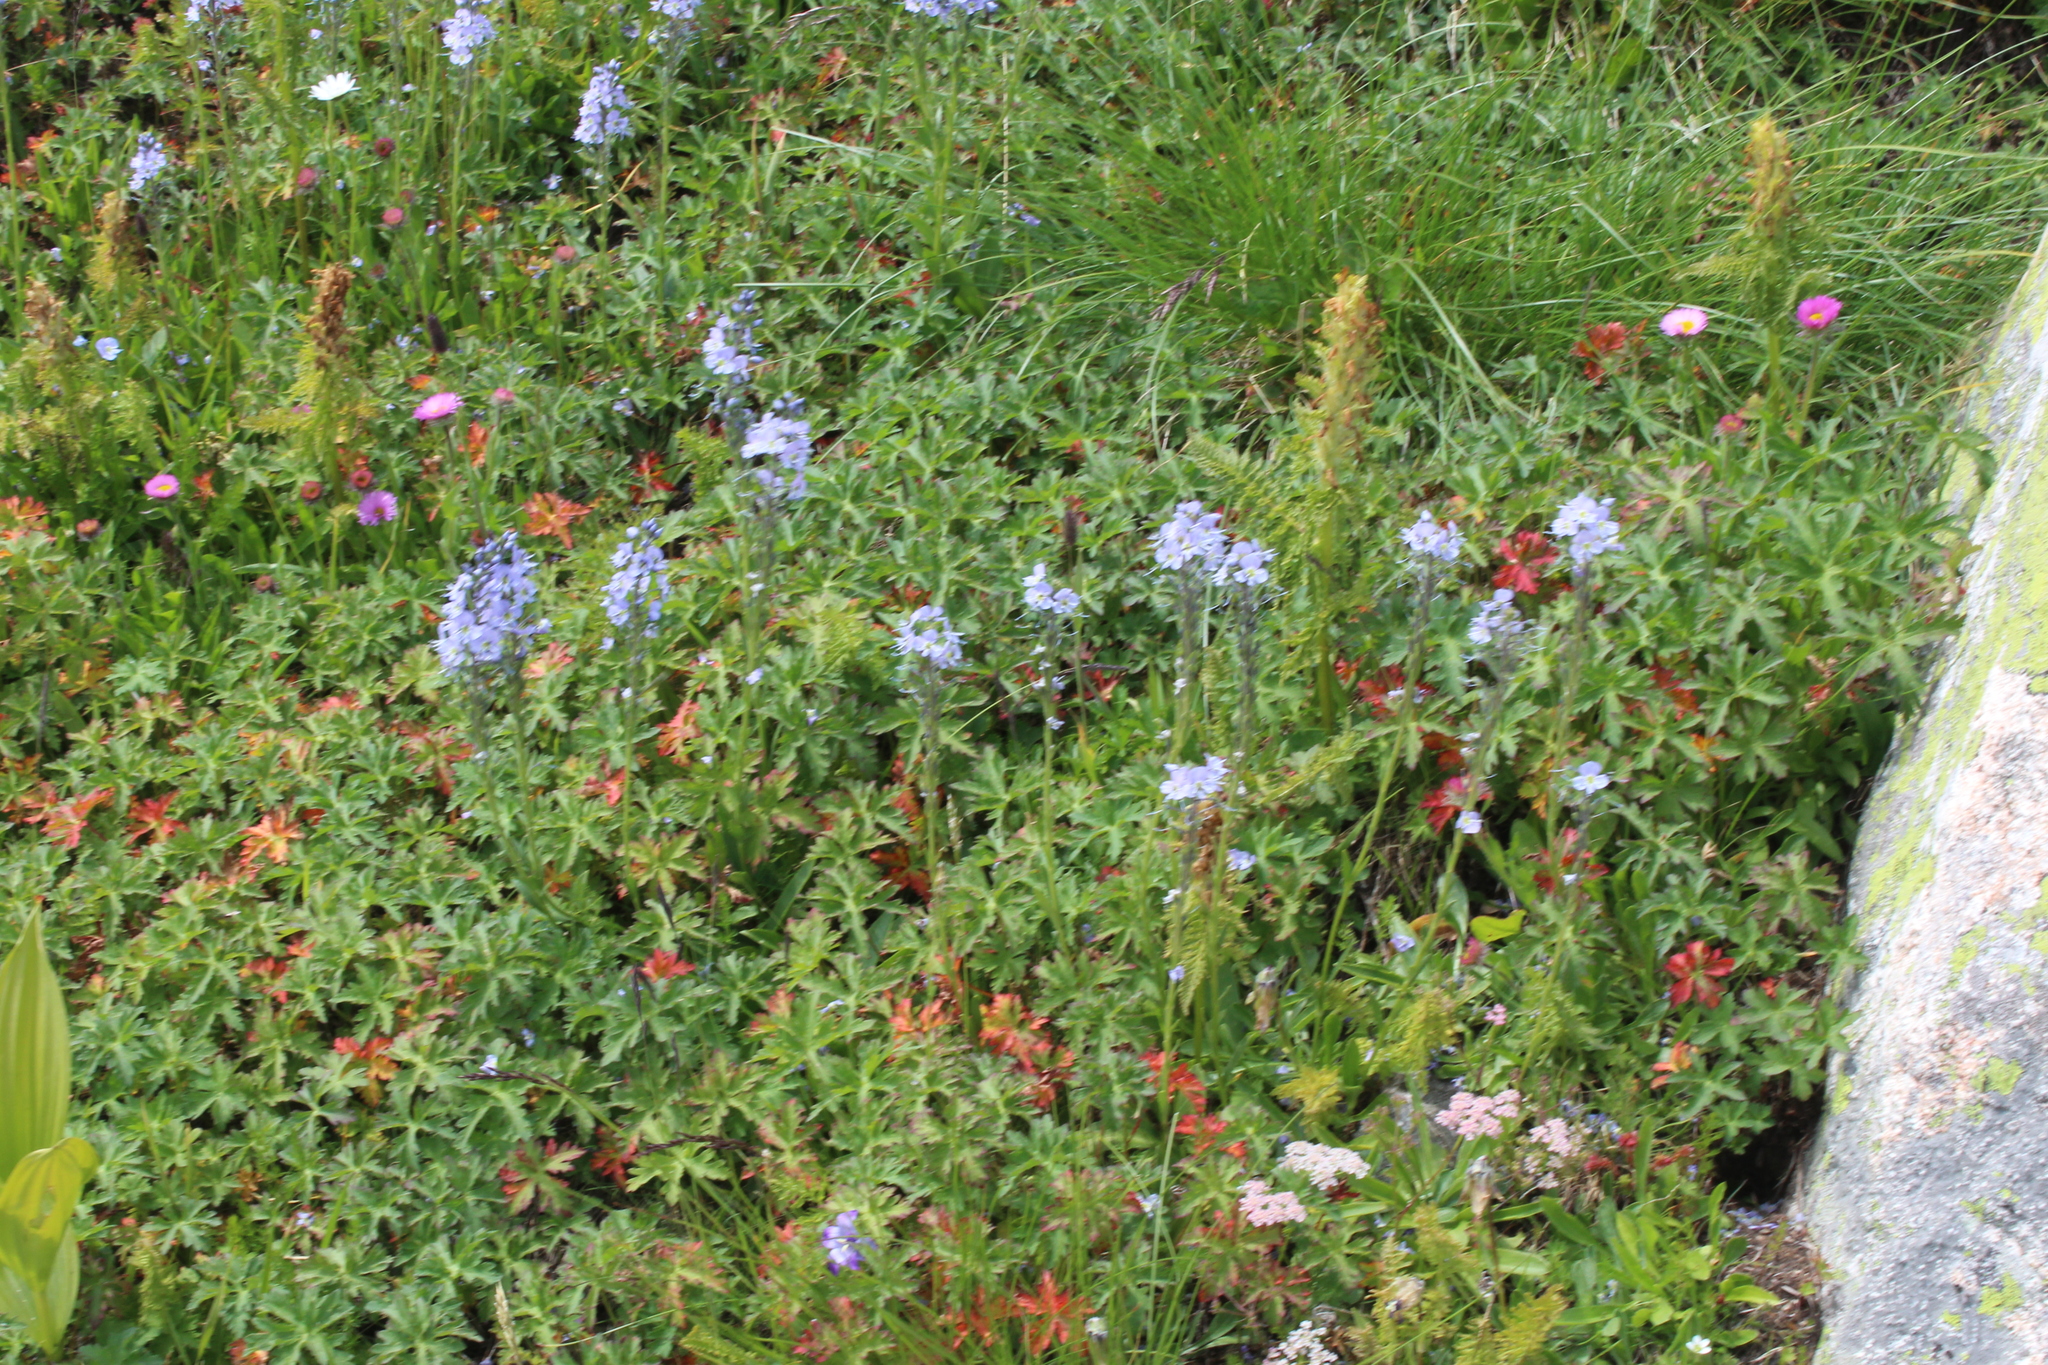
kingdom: Plantae
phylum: Tracheophyta
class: Magnoliopsida
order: Lamiales
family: Plantaginaceae
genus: Veronica
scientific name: Veronica gentianoides
